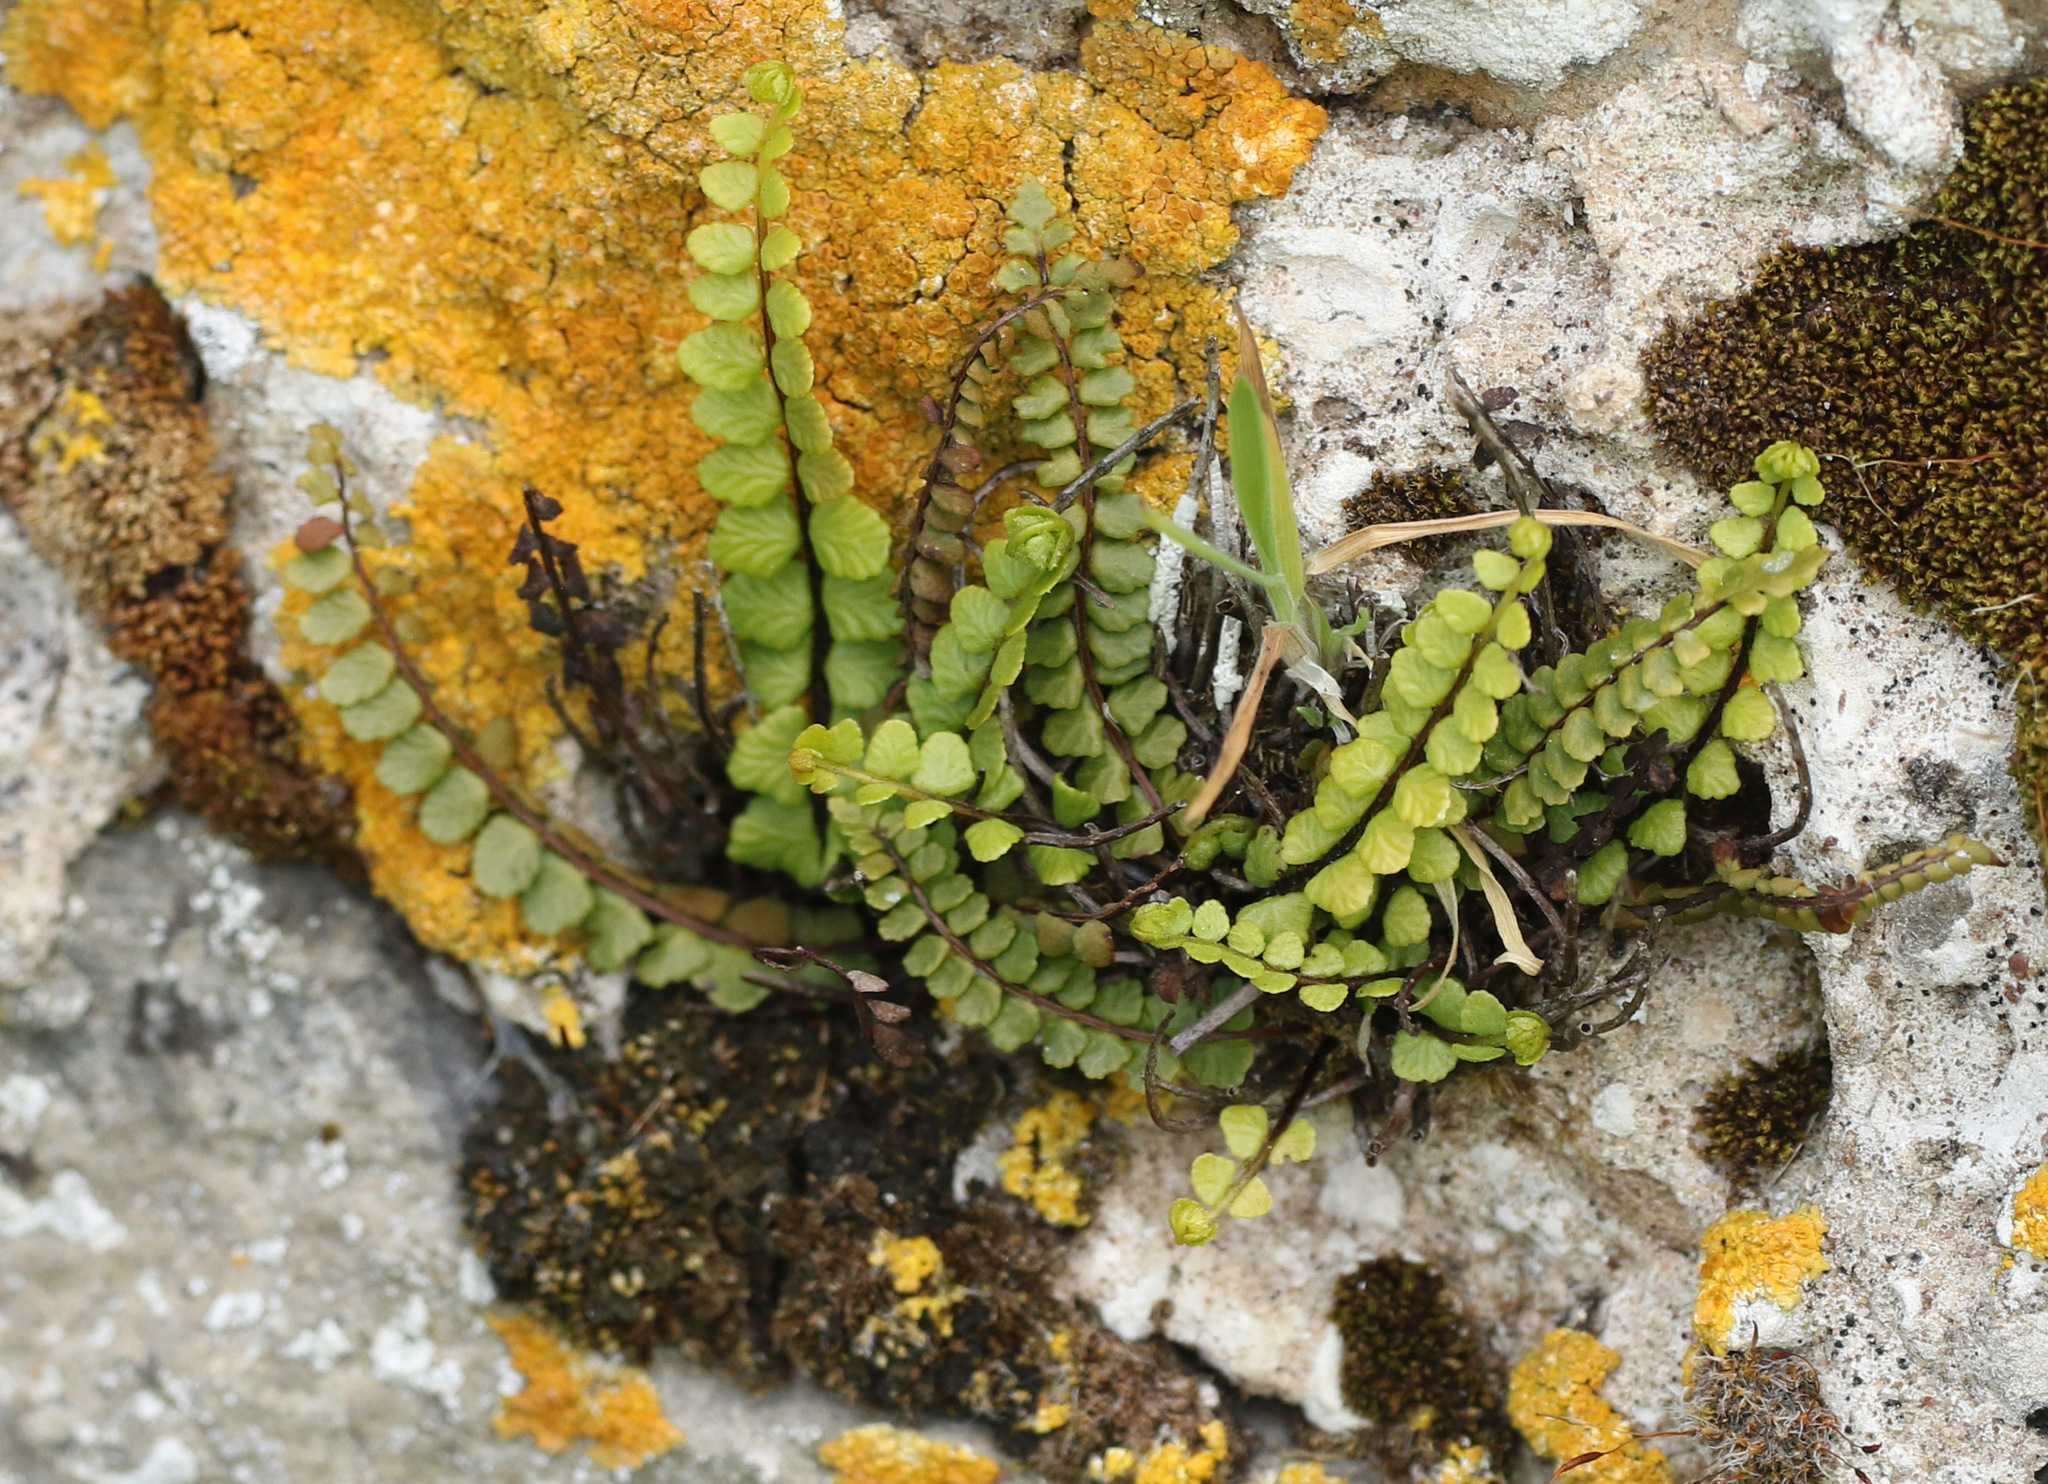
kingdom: Plantae
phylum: Tracheophyta
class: Polypodiopsida
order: Polypodiales
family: Aspleniaceae
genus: Asplenium
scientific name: Asplenium trichomanes
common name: Maidenhair spleenwort
